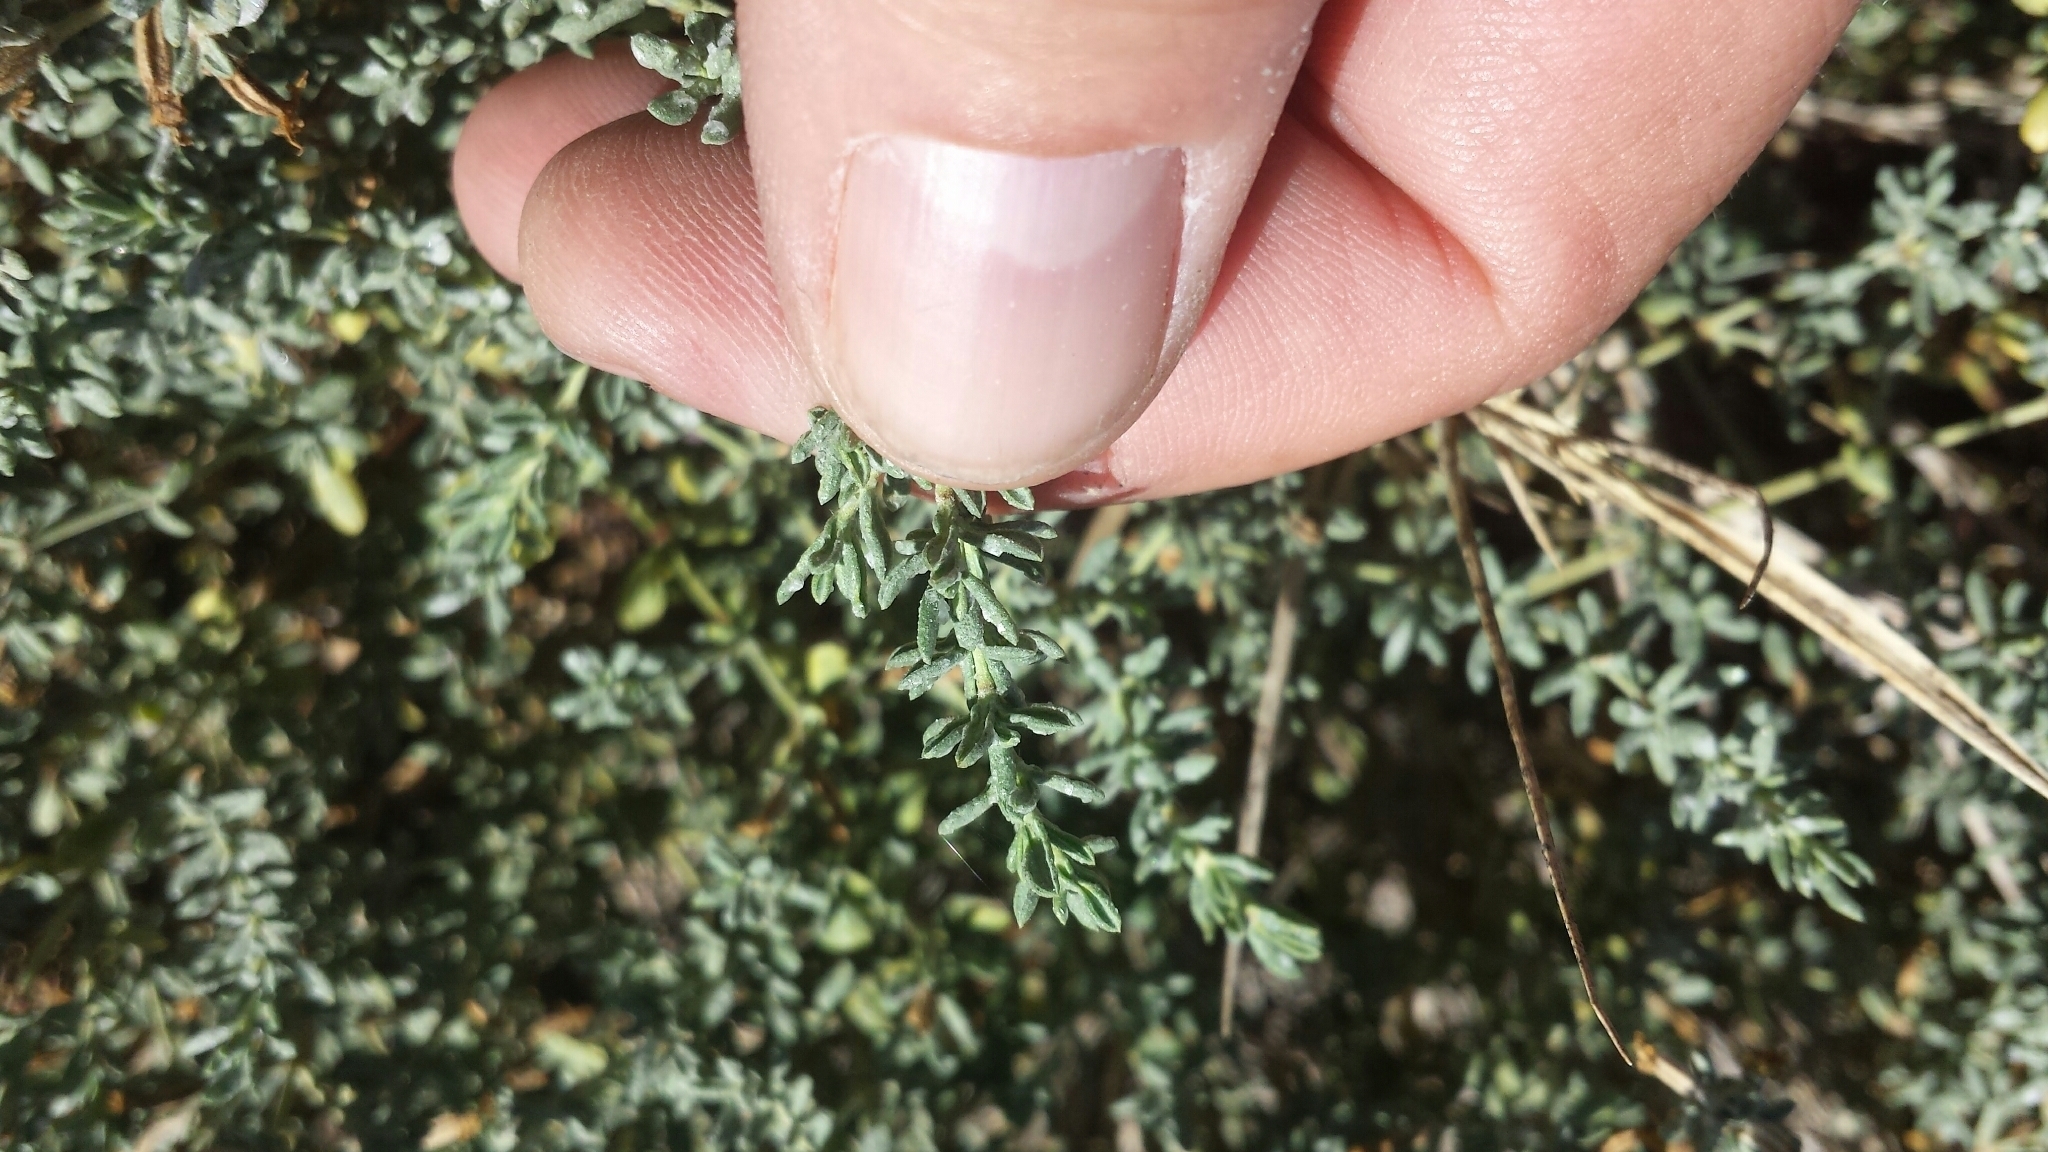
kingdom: Plantae
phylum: Tracheophyta
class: Magnoliopsida
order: Caryophyllales
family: Frankeniaceae
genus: Frankenia
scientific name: Frankenia salina
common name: Alkali seaheath
